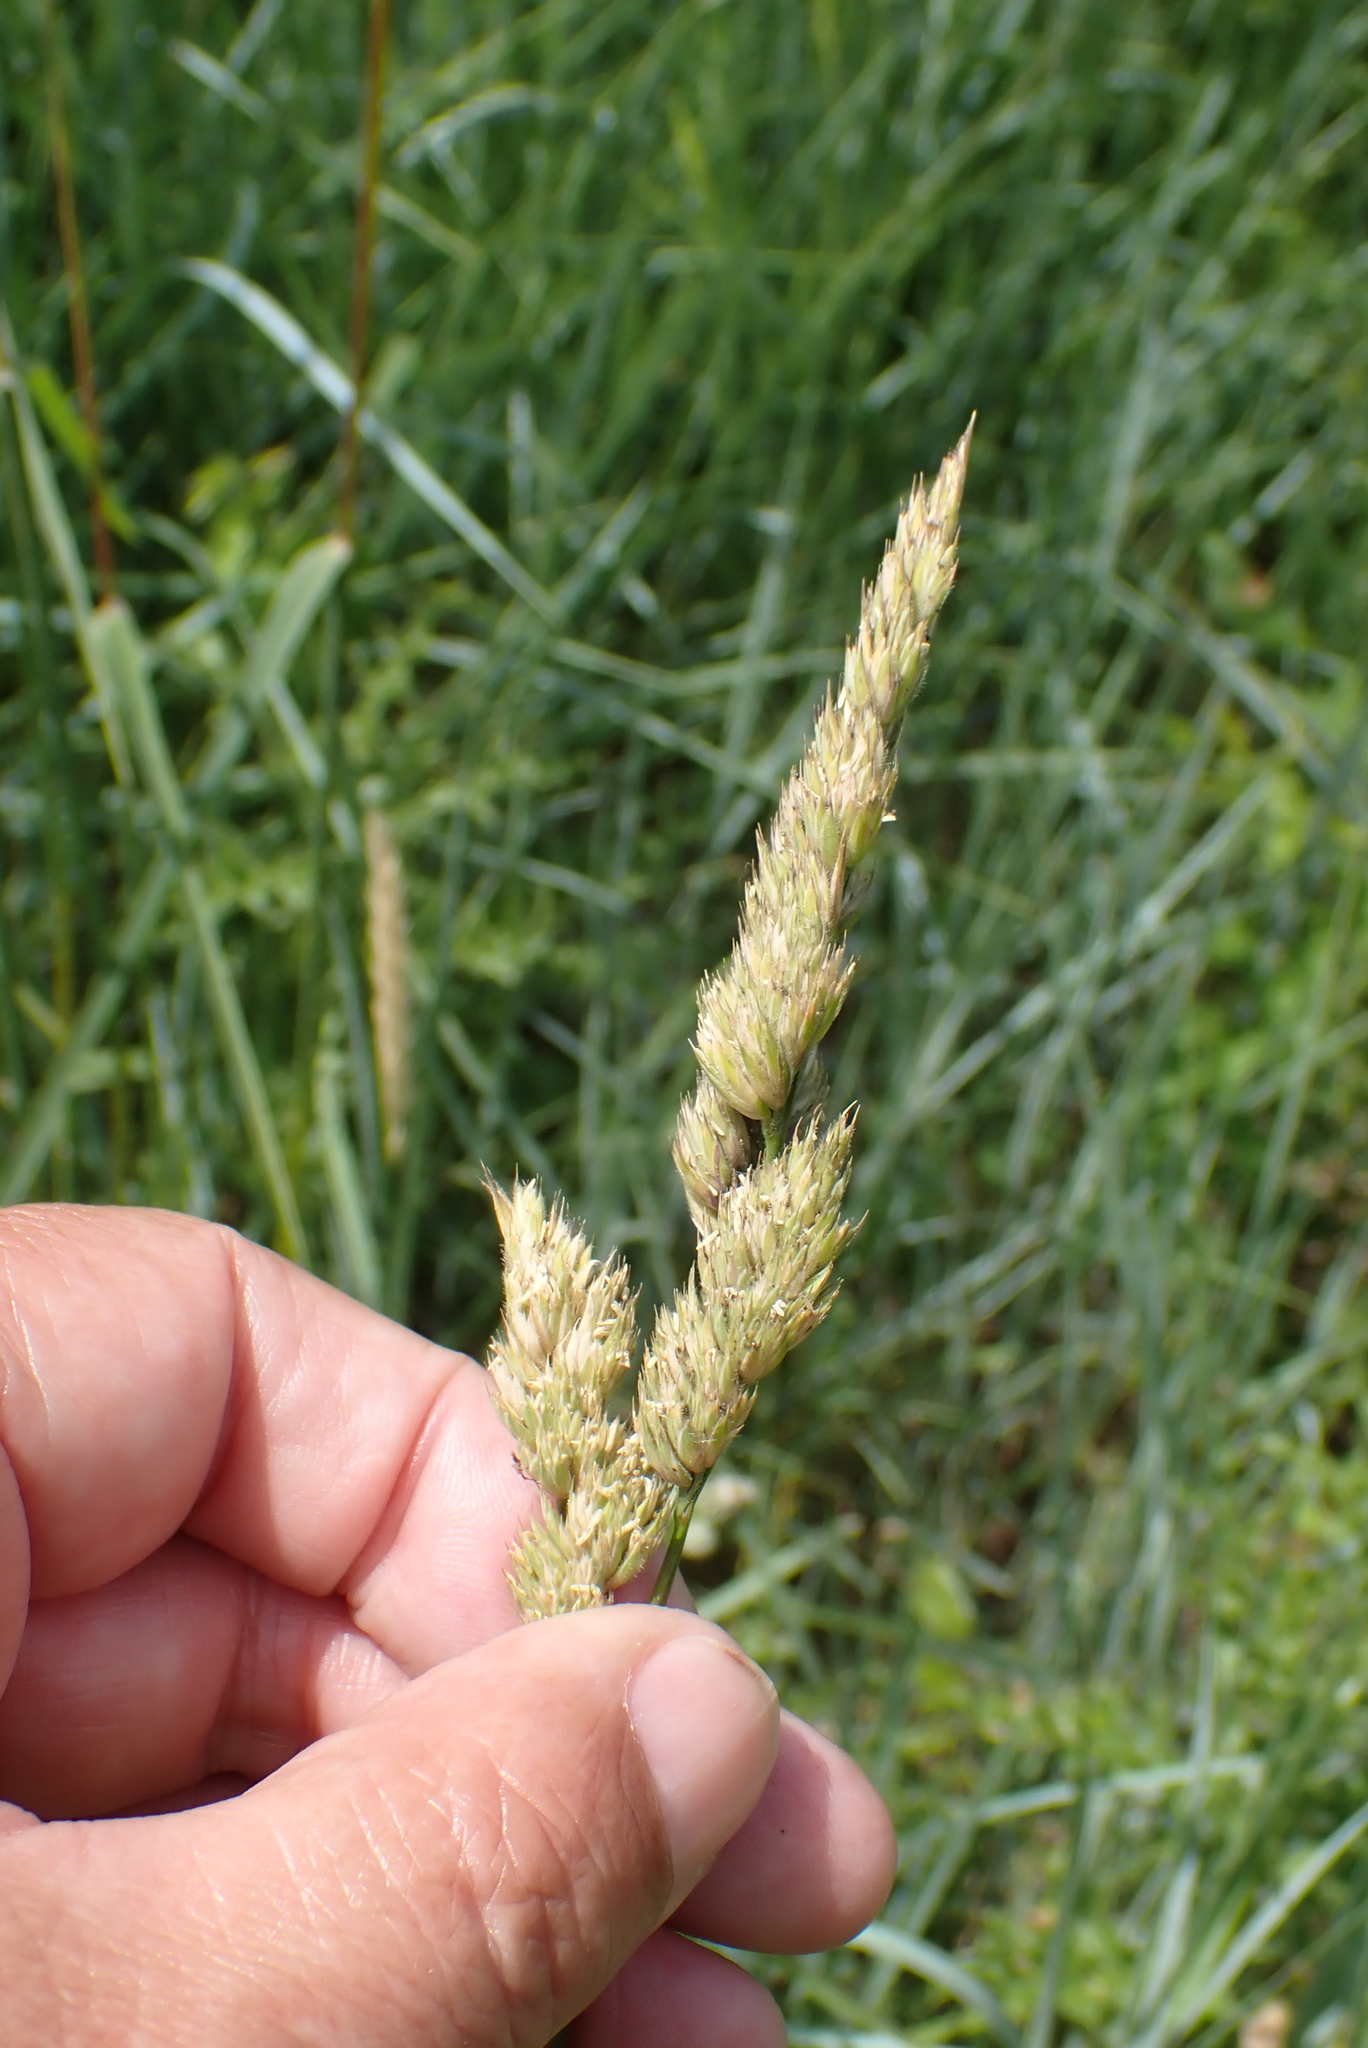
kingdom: Plantae
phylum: Tracheophyta
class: Liliopsida
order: Poales
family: Poaceae
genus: Dactylis
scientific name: Dactylis glomerata
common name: Orchardgrass
